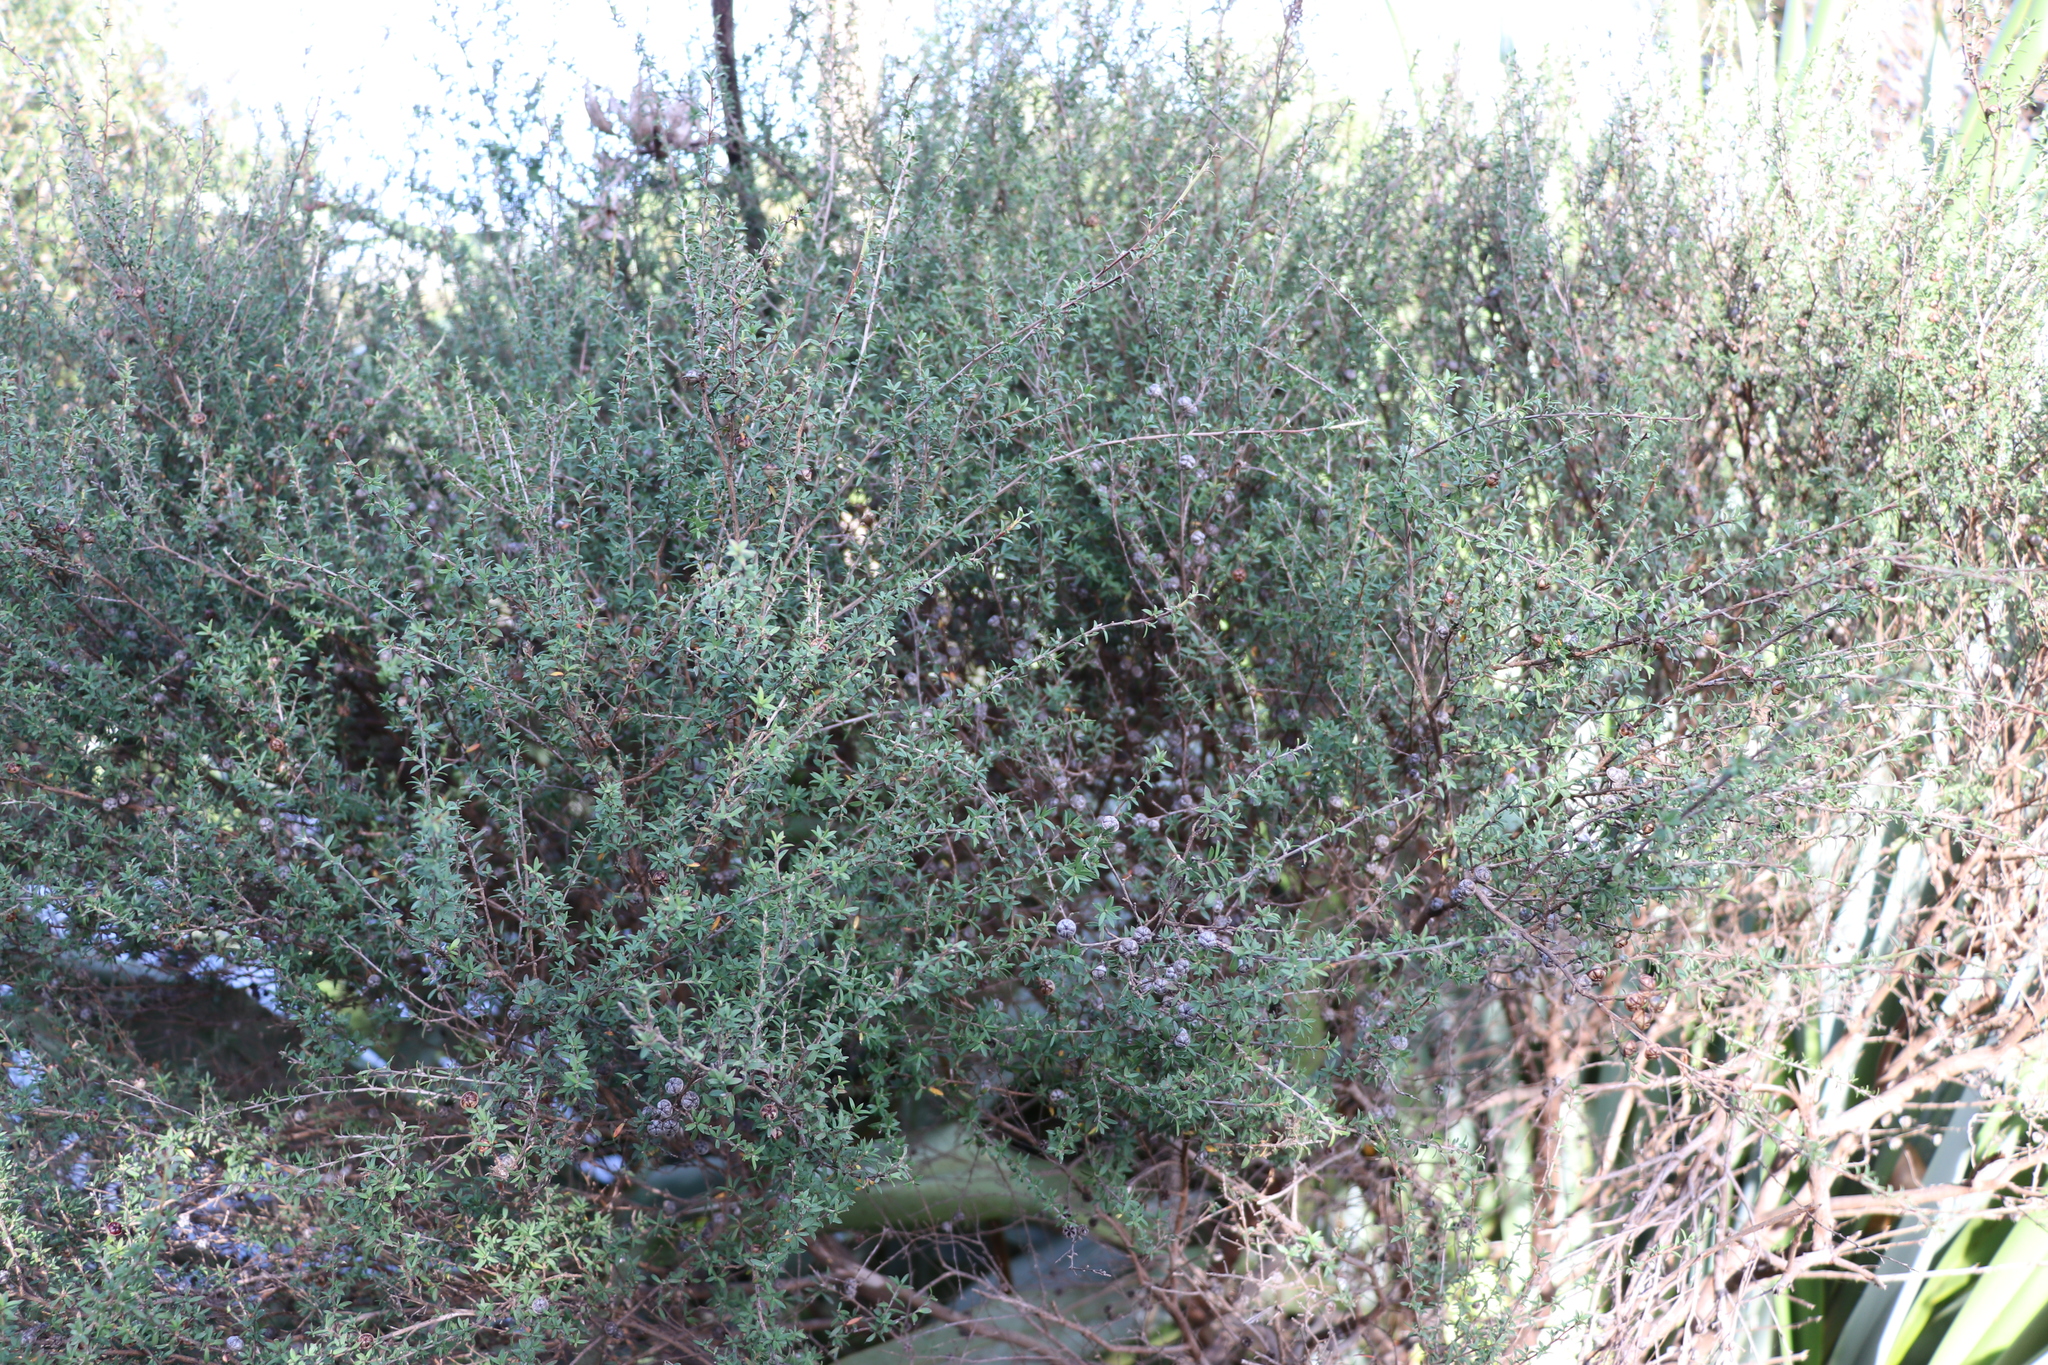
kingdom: Plantae
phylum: Tracheophyta
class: Magnoliopsida
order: Myrtales
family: Myrtaceae
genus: Leptospermum
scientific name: Leptospermum scoparium
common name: Broom tea-tree
